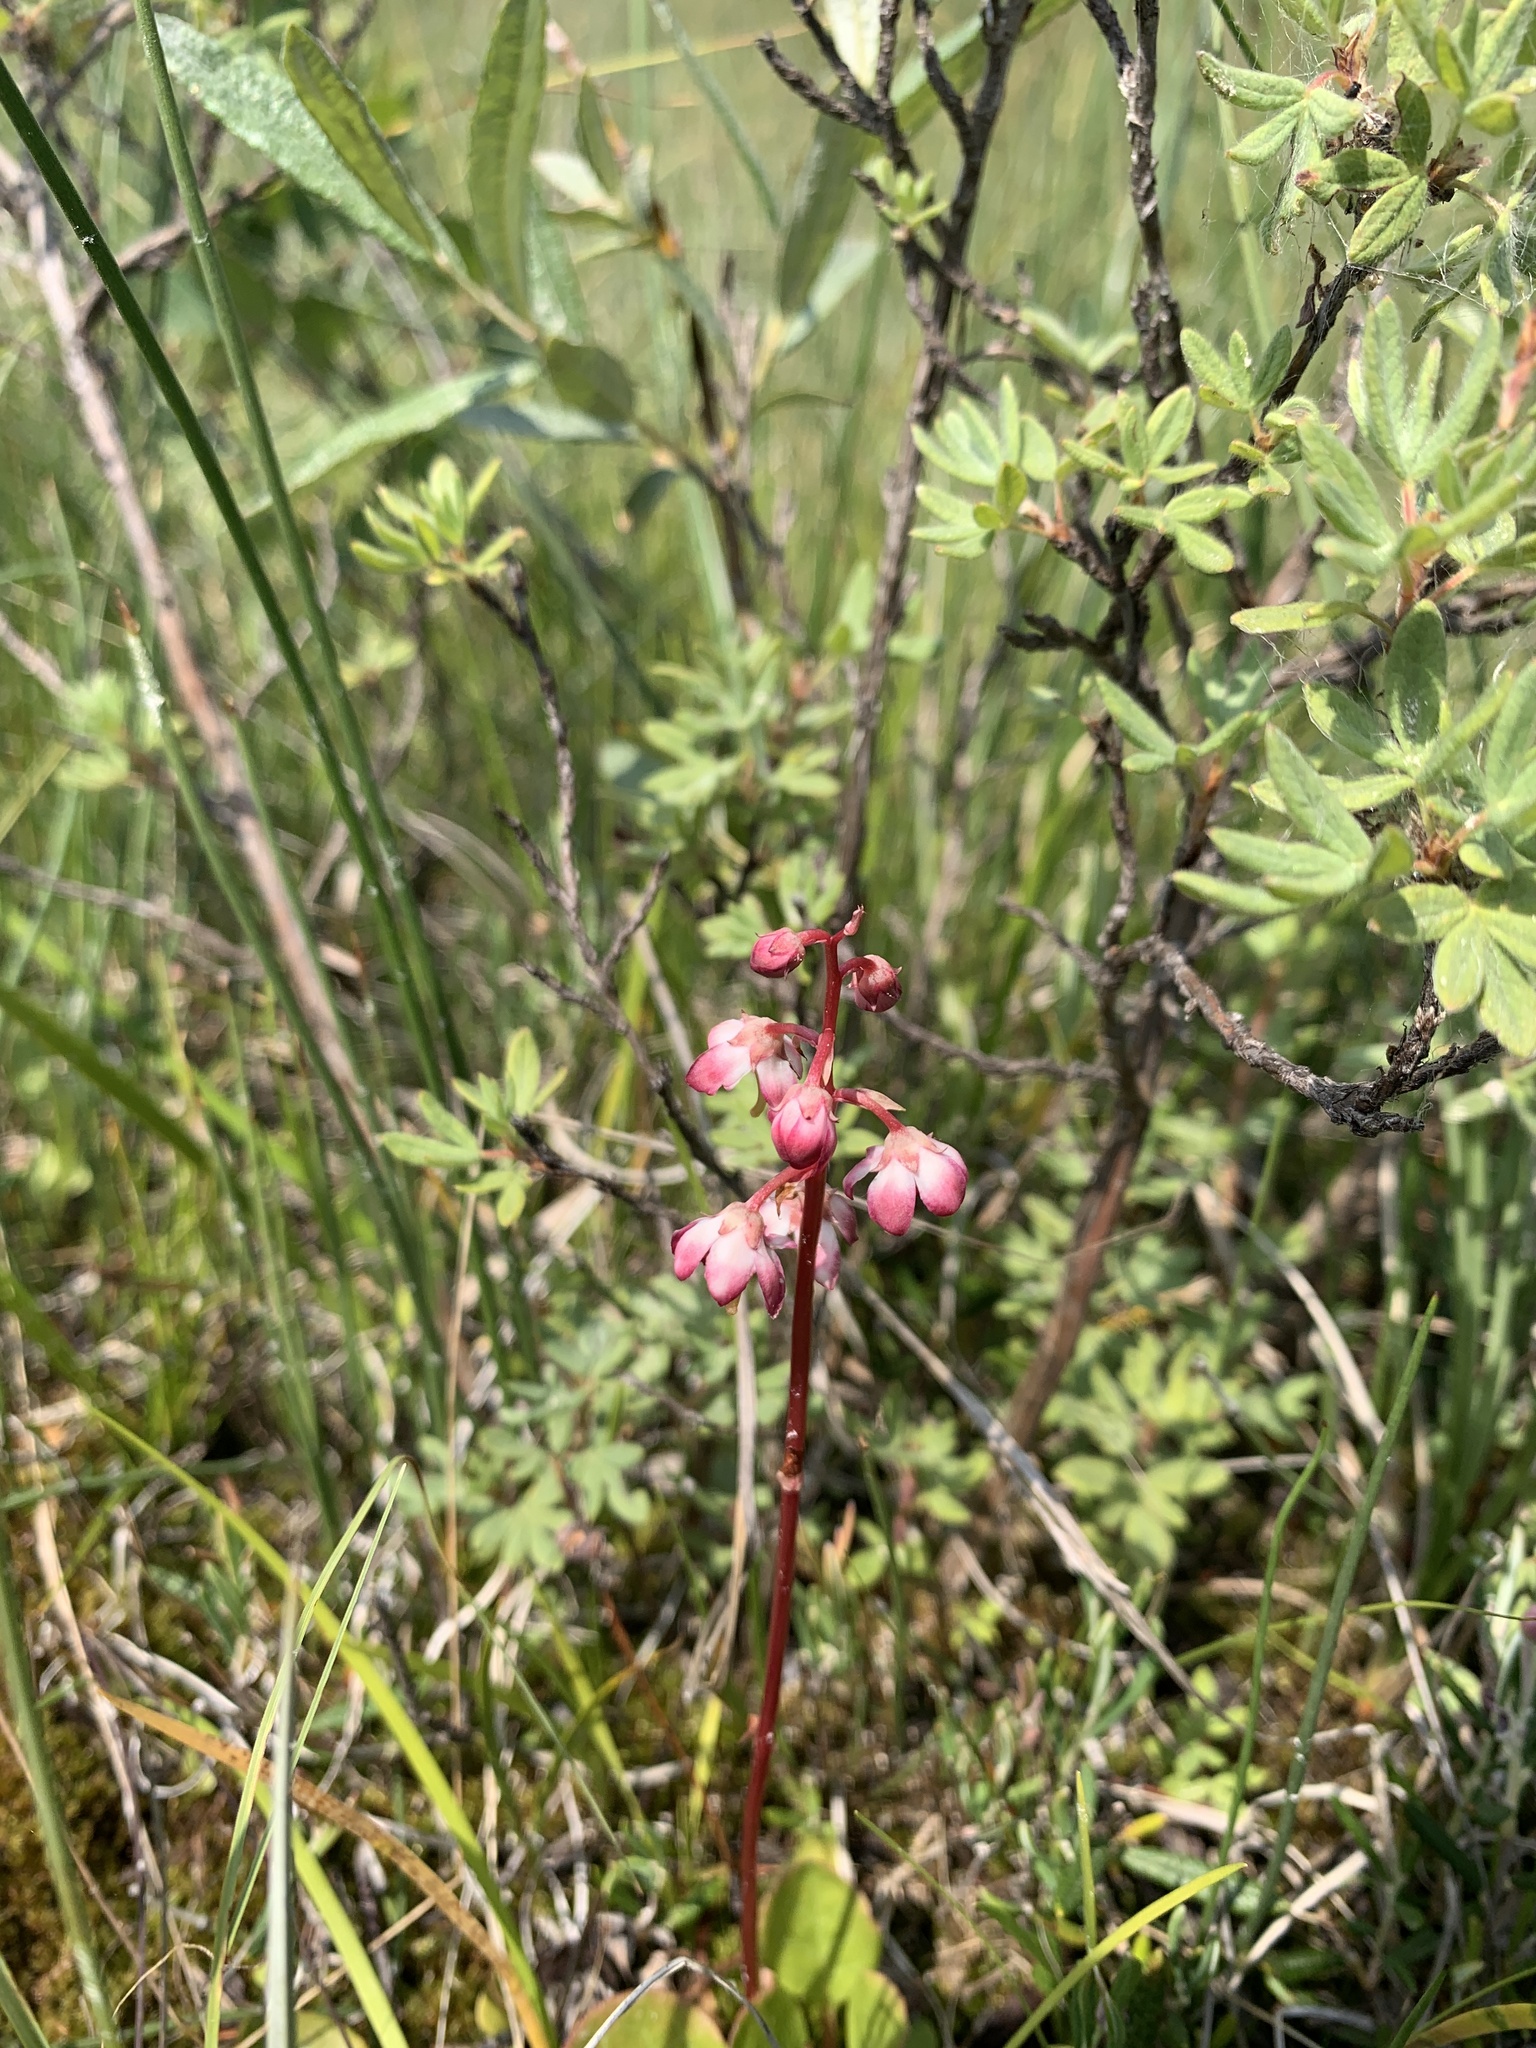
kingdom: Plantae
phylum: Tracheophyta
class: Magnoliopsida
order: Ericales
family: Ericaceae
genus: Pyrola
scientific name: Pyrola asarifolia
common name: Bog wintergreen
